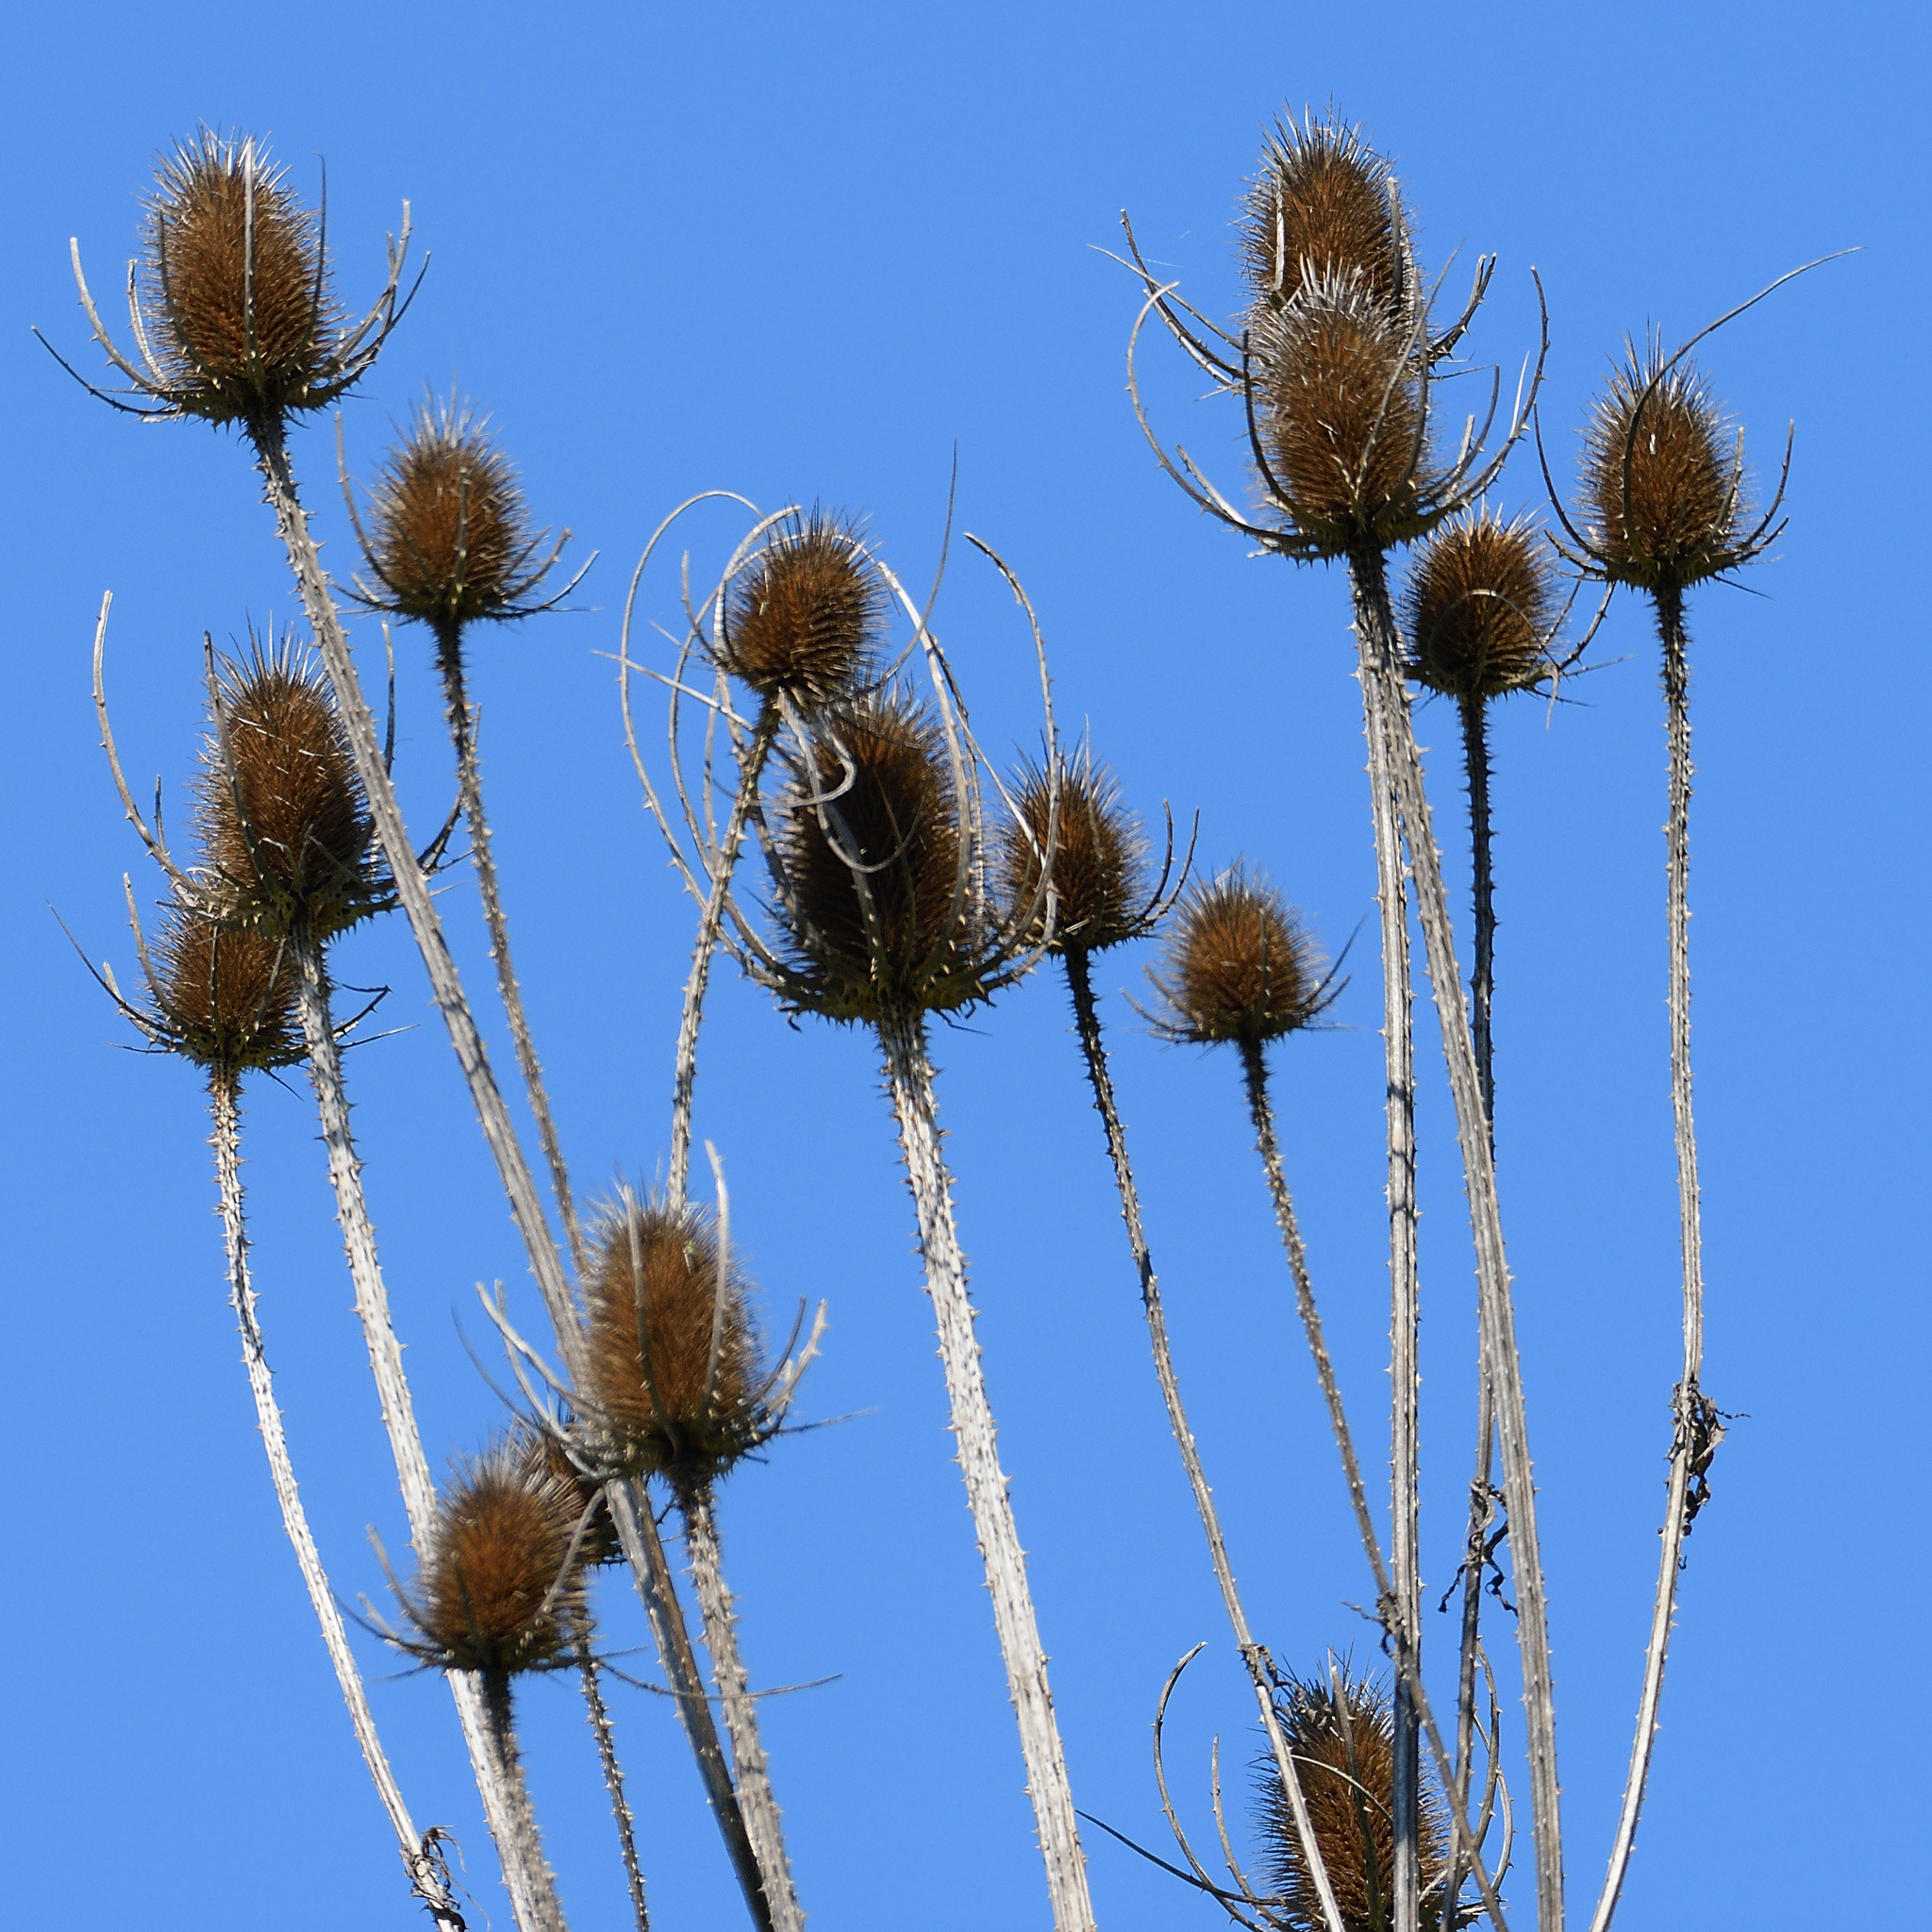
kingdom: Plantae
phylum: Tracheophyta
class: Magnoliopsida
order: Dipsacales
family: Caprifoliaceae
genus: Dipsacus
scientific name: Dipsacus fullonum
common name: Teasel
